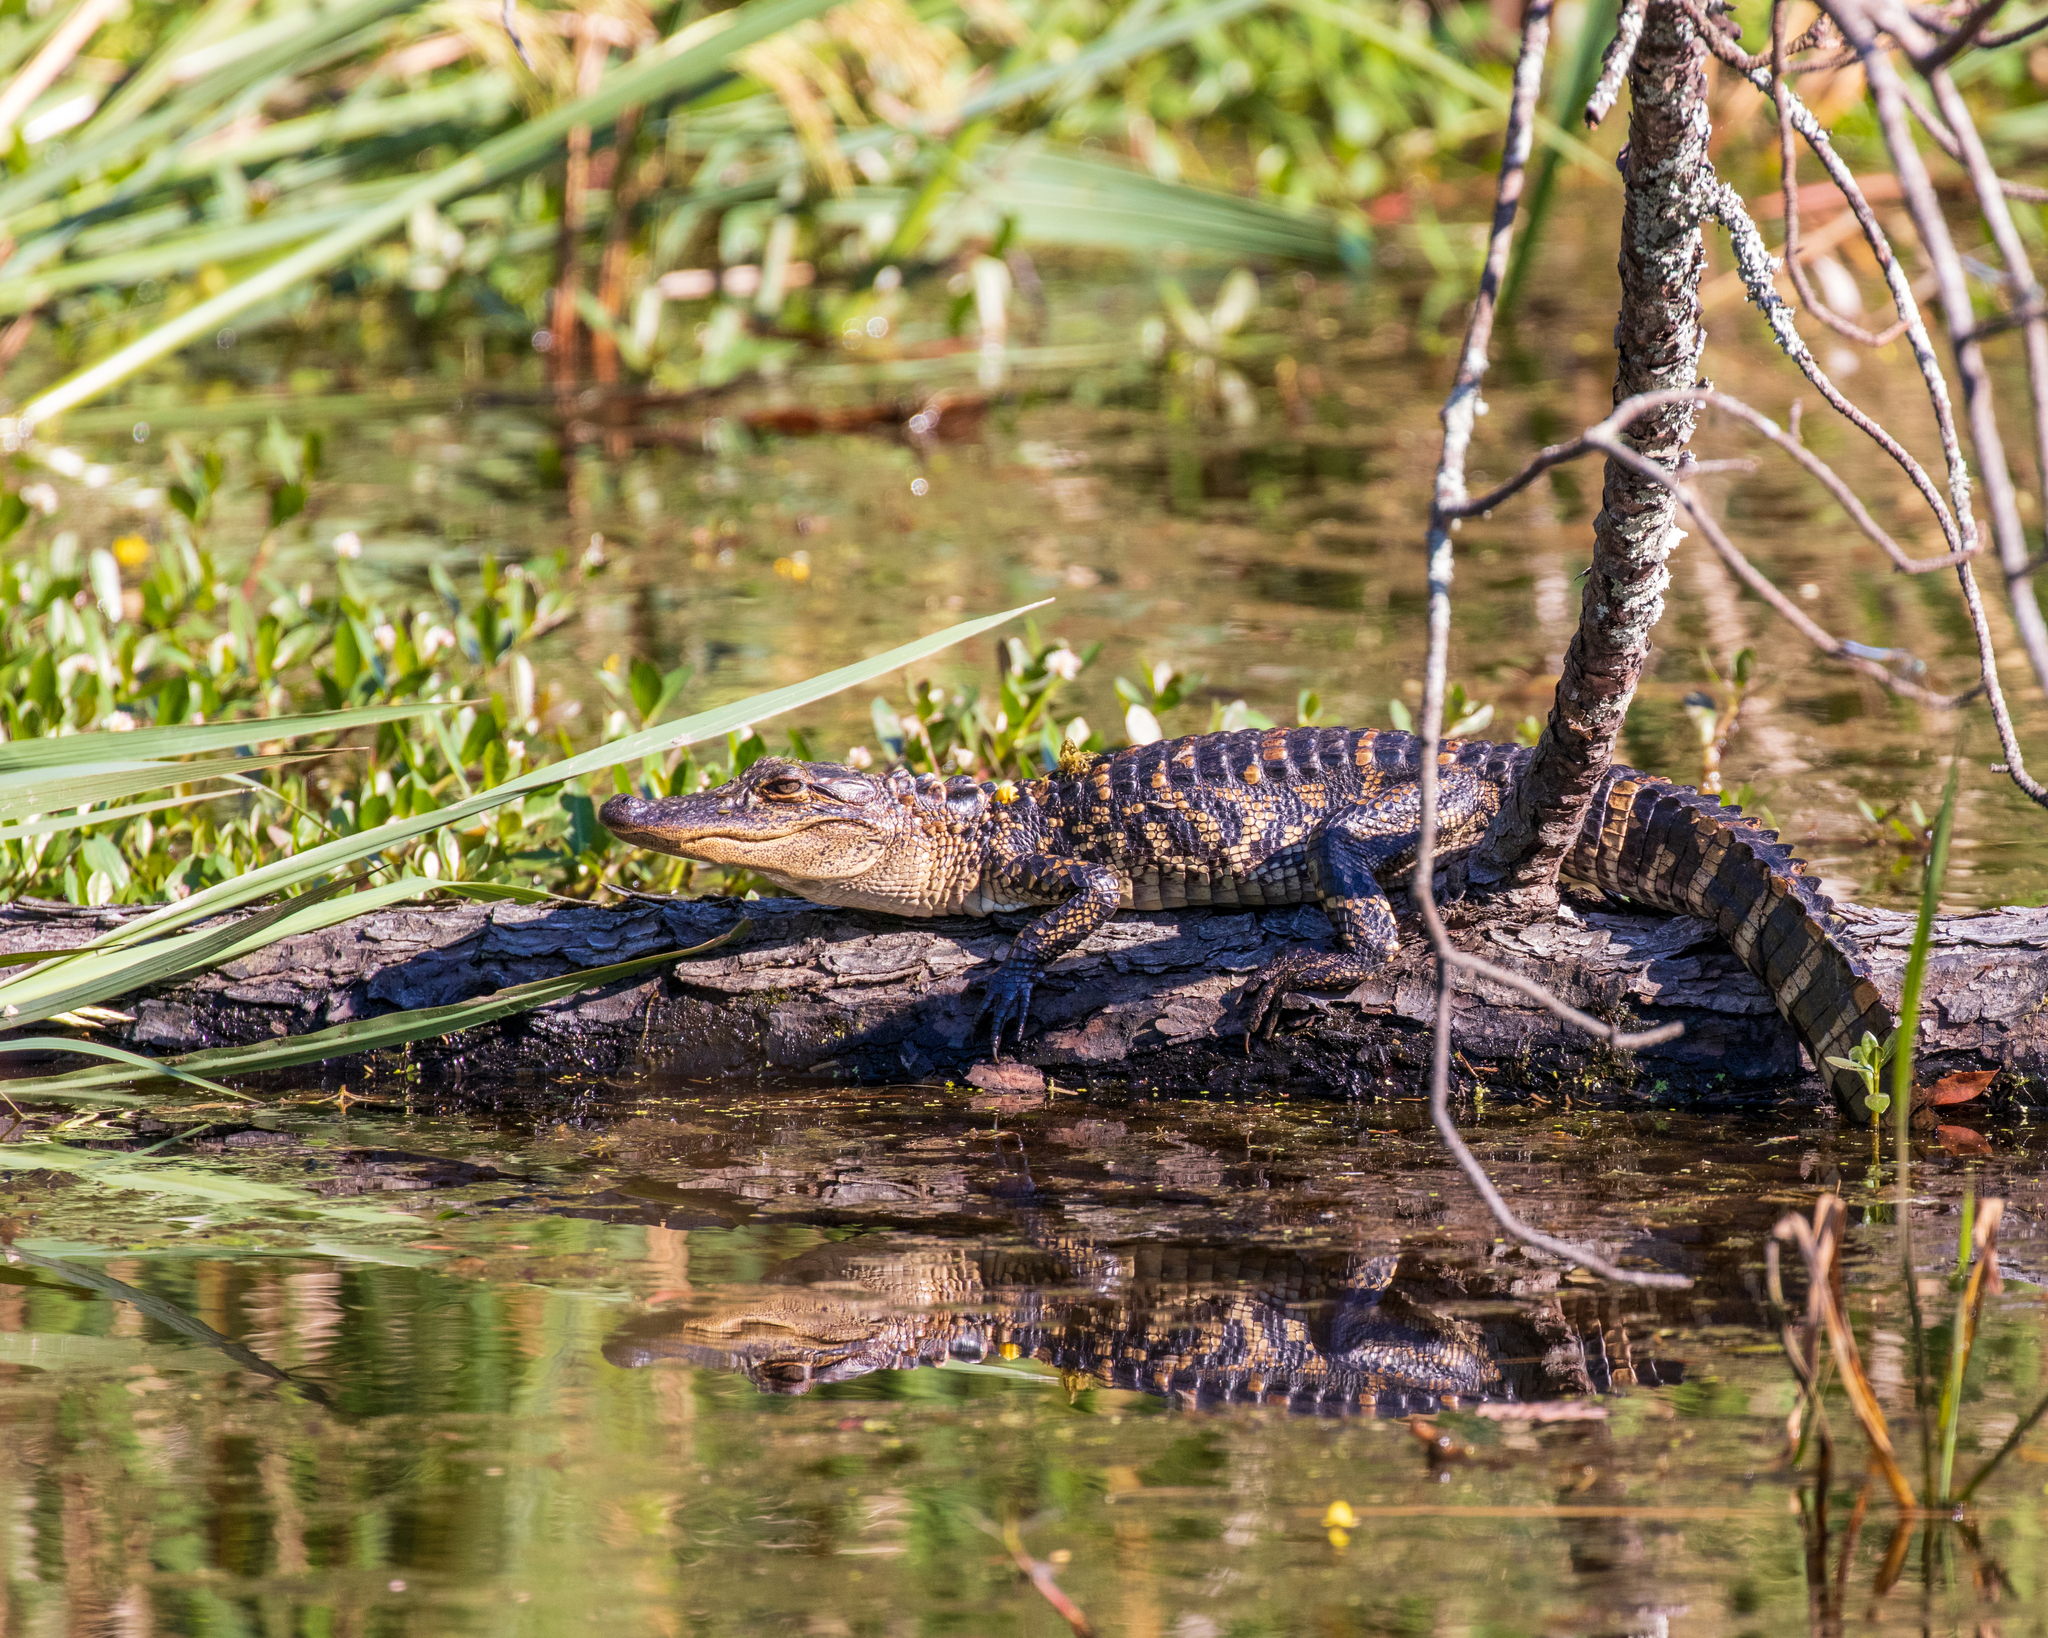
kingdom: Animalia
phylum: Chordata
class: Crocodylia
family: Alligatoridae
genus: Alligator
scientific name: Alligator mississippiensis
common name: American alligator
